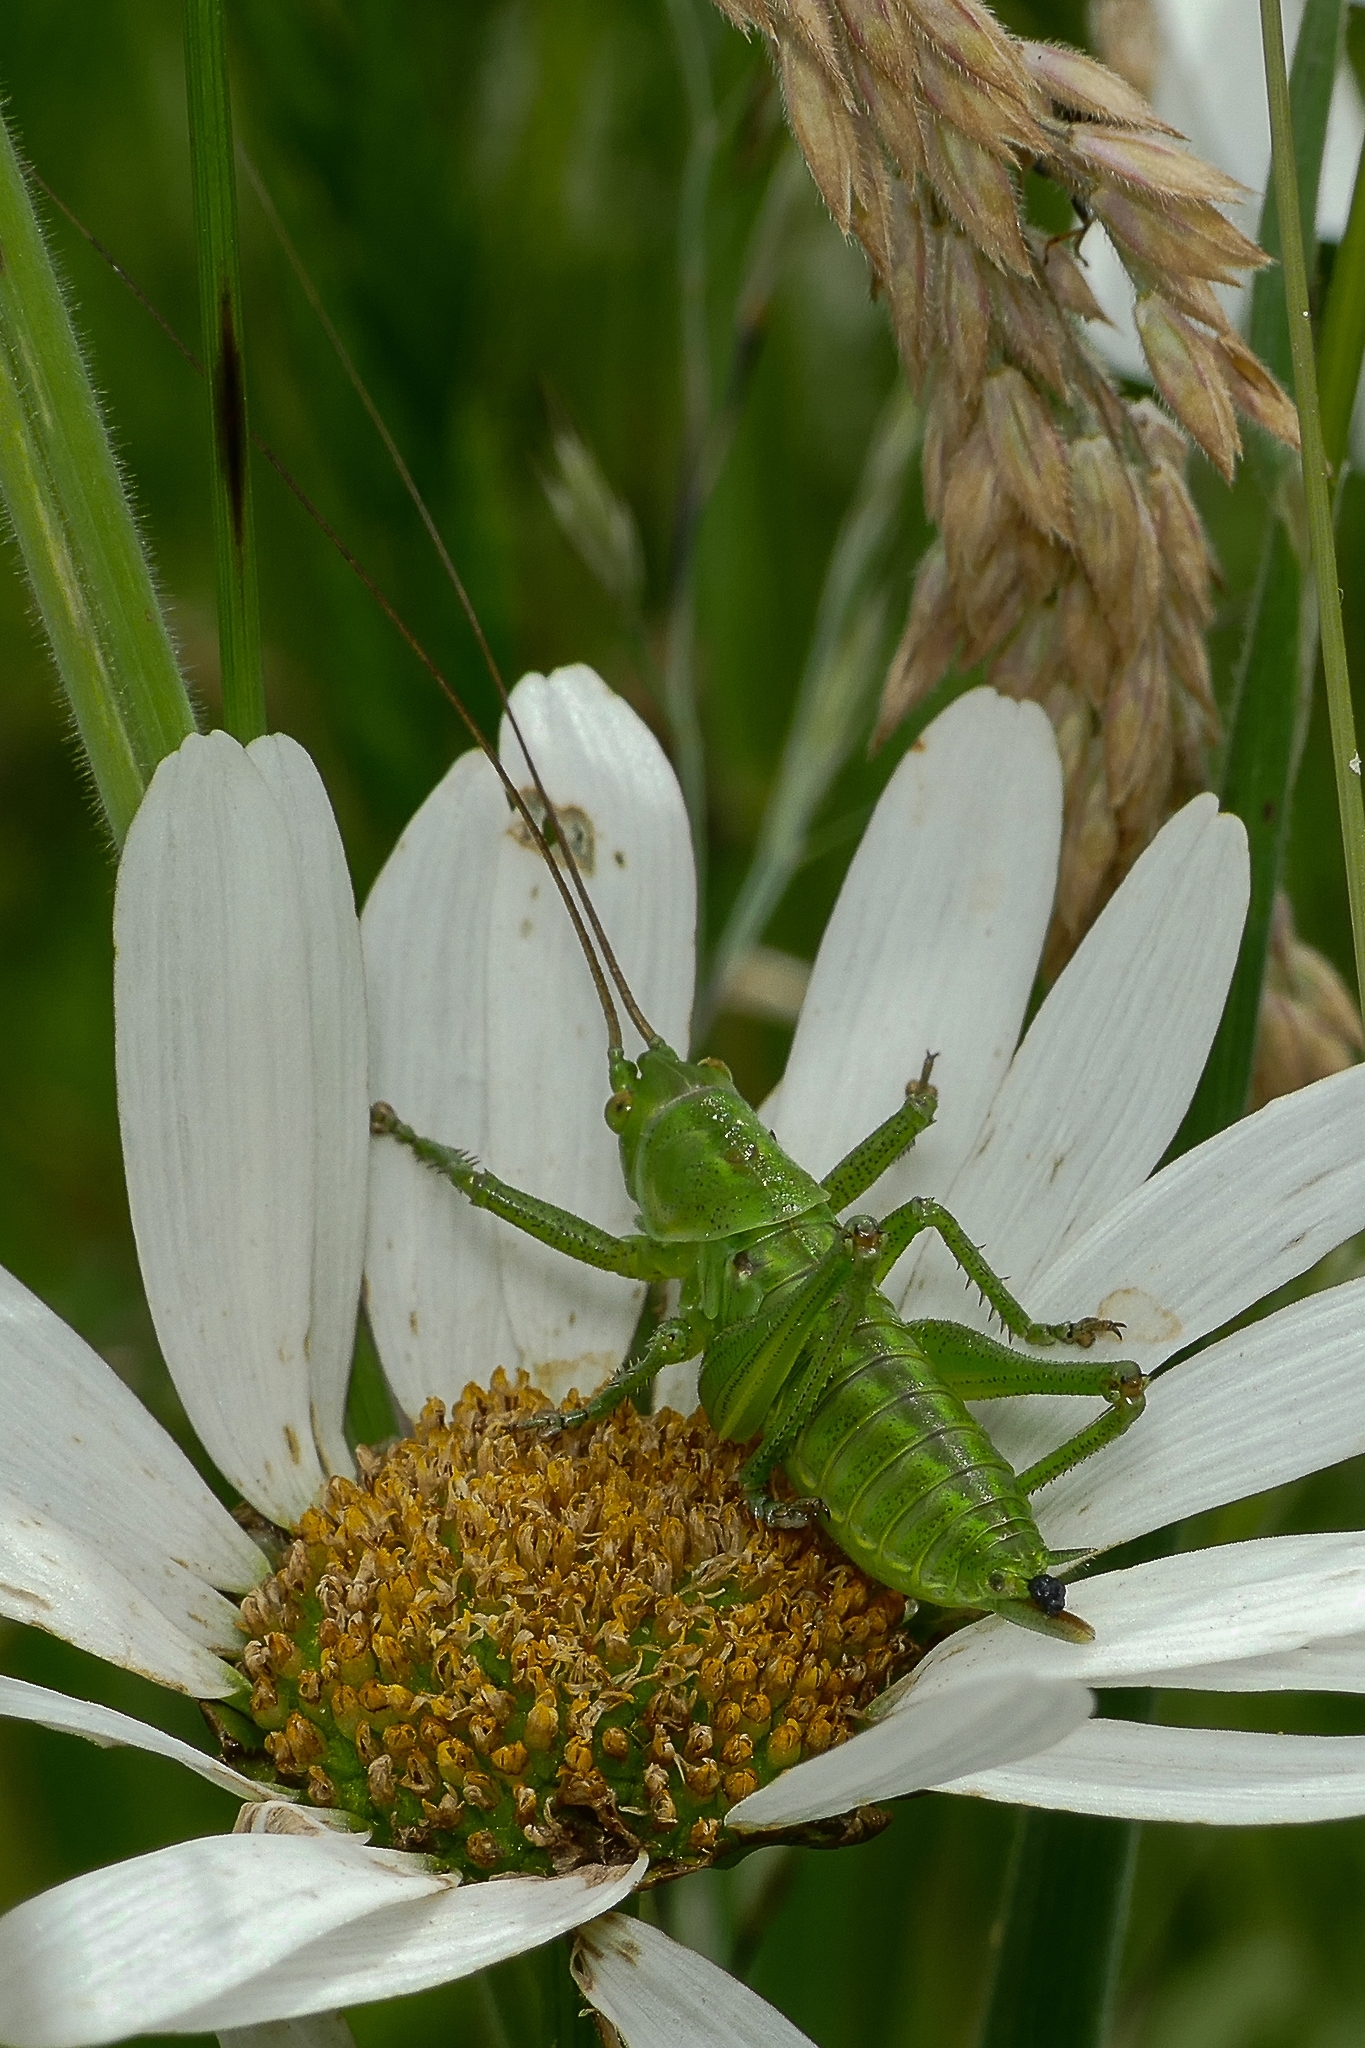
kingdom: Animalia
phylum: Arthropoda
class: Insecta
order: Orthoptera
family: Tettigoniidae
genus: Tettigonia
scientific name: Tettigonia viridissima
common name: Great green bush-cricket
